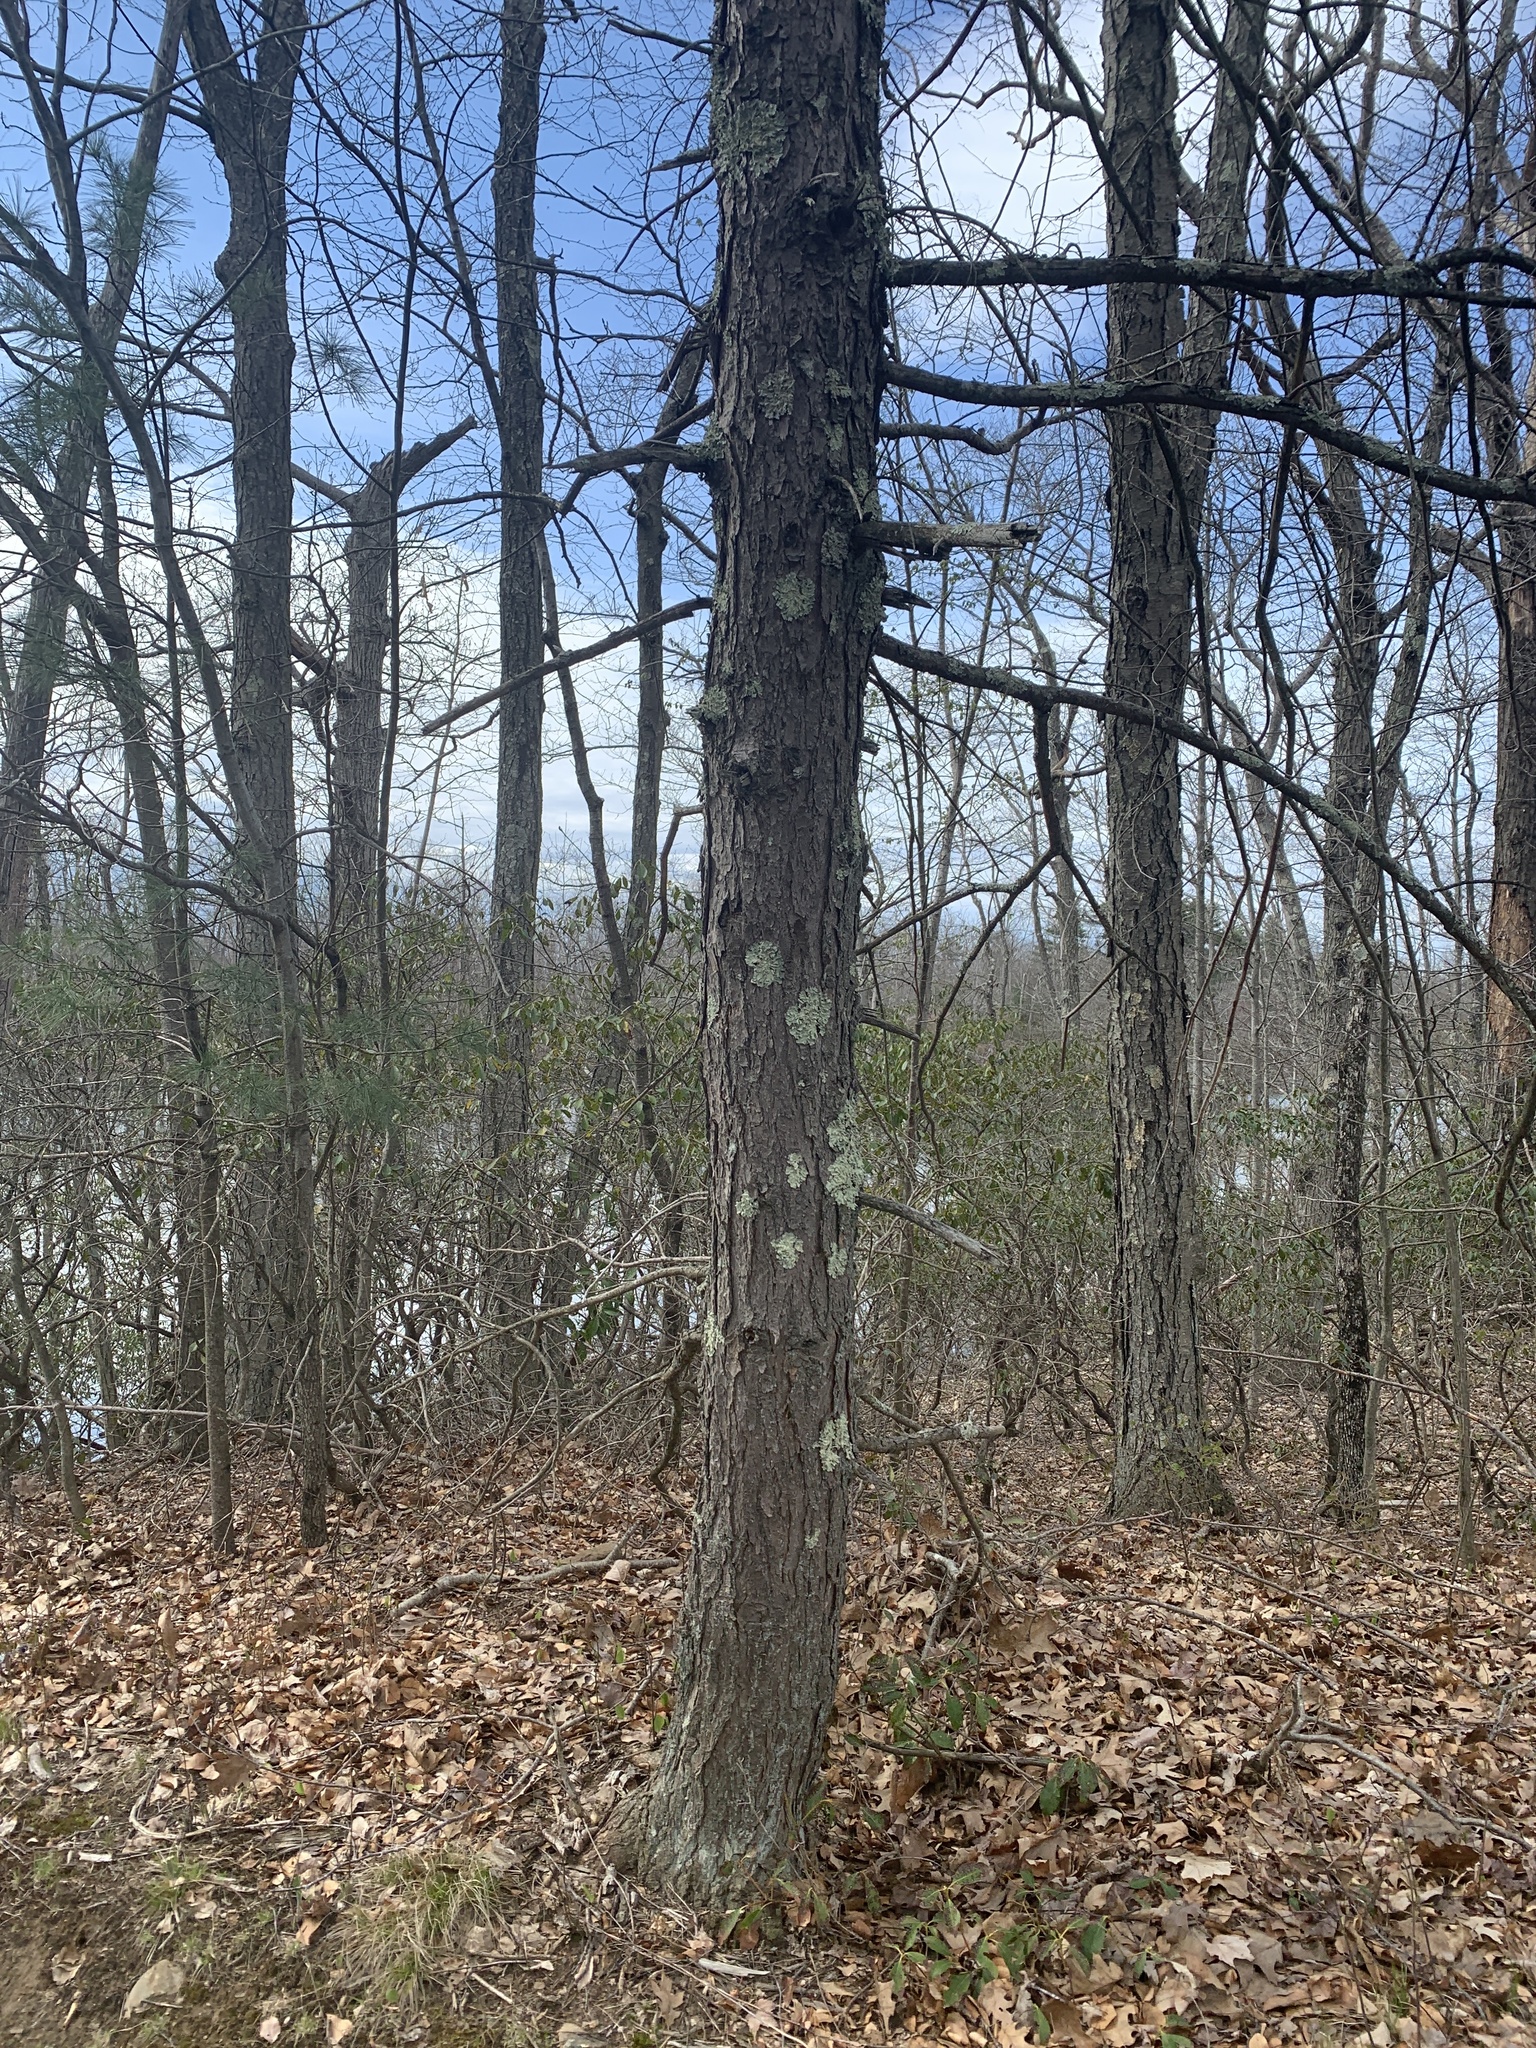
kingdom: Plantae
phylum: Tracheophyta
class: Pinopsida
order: Pinales
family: Pinaceae
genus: Tsuga
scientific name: Tsuga canadensis
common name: Eastern hemlock
